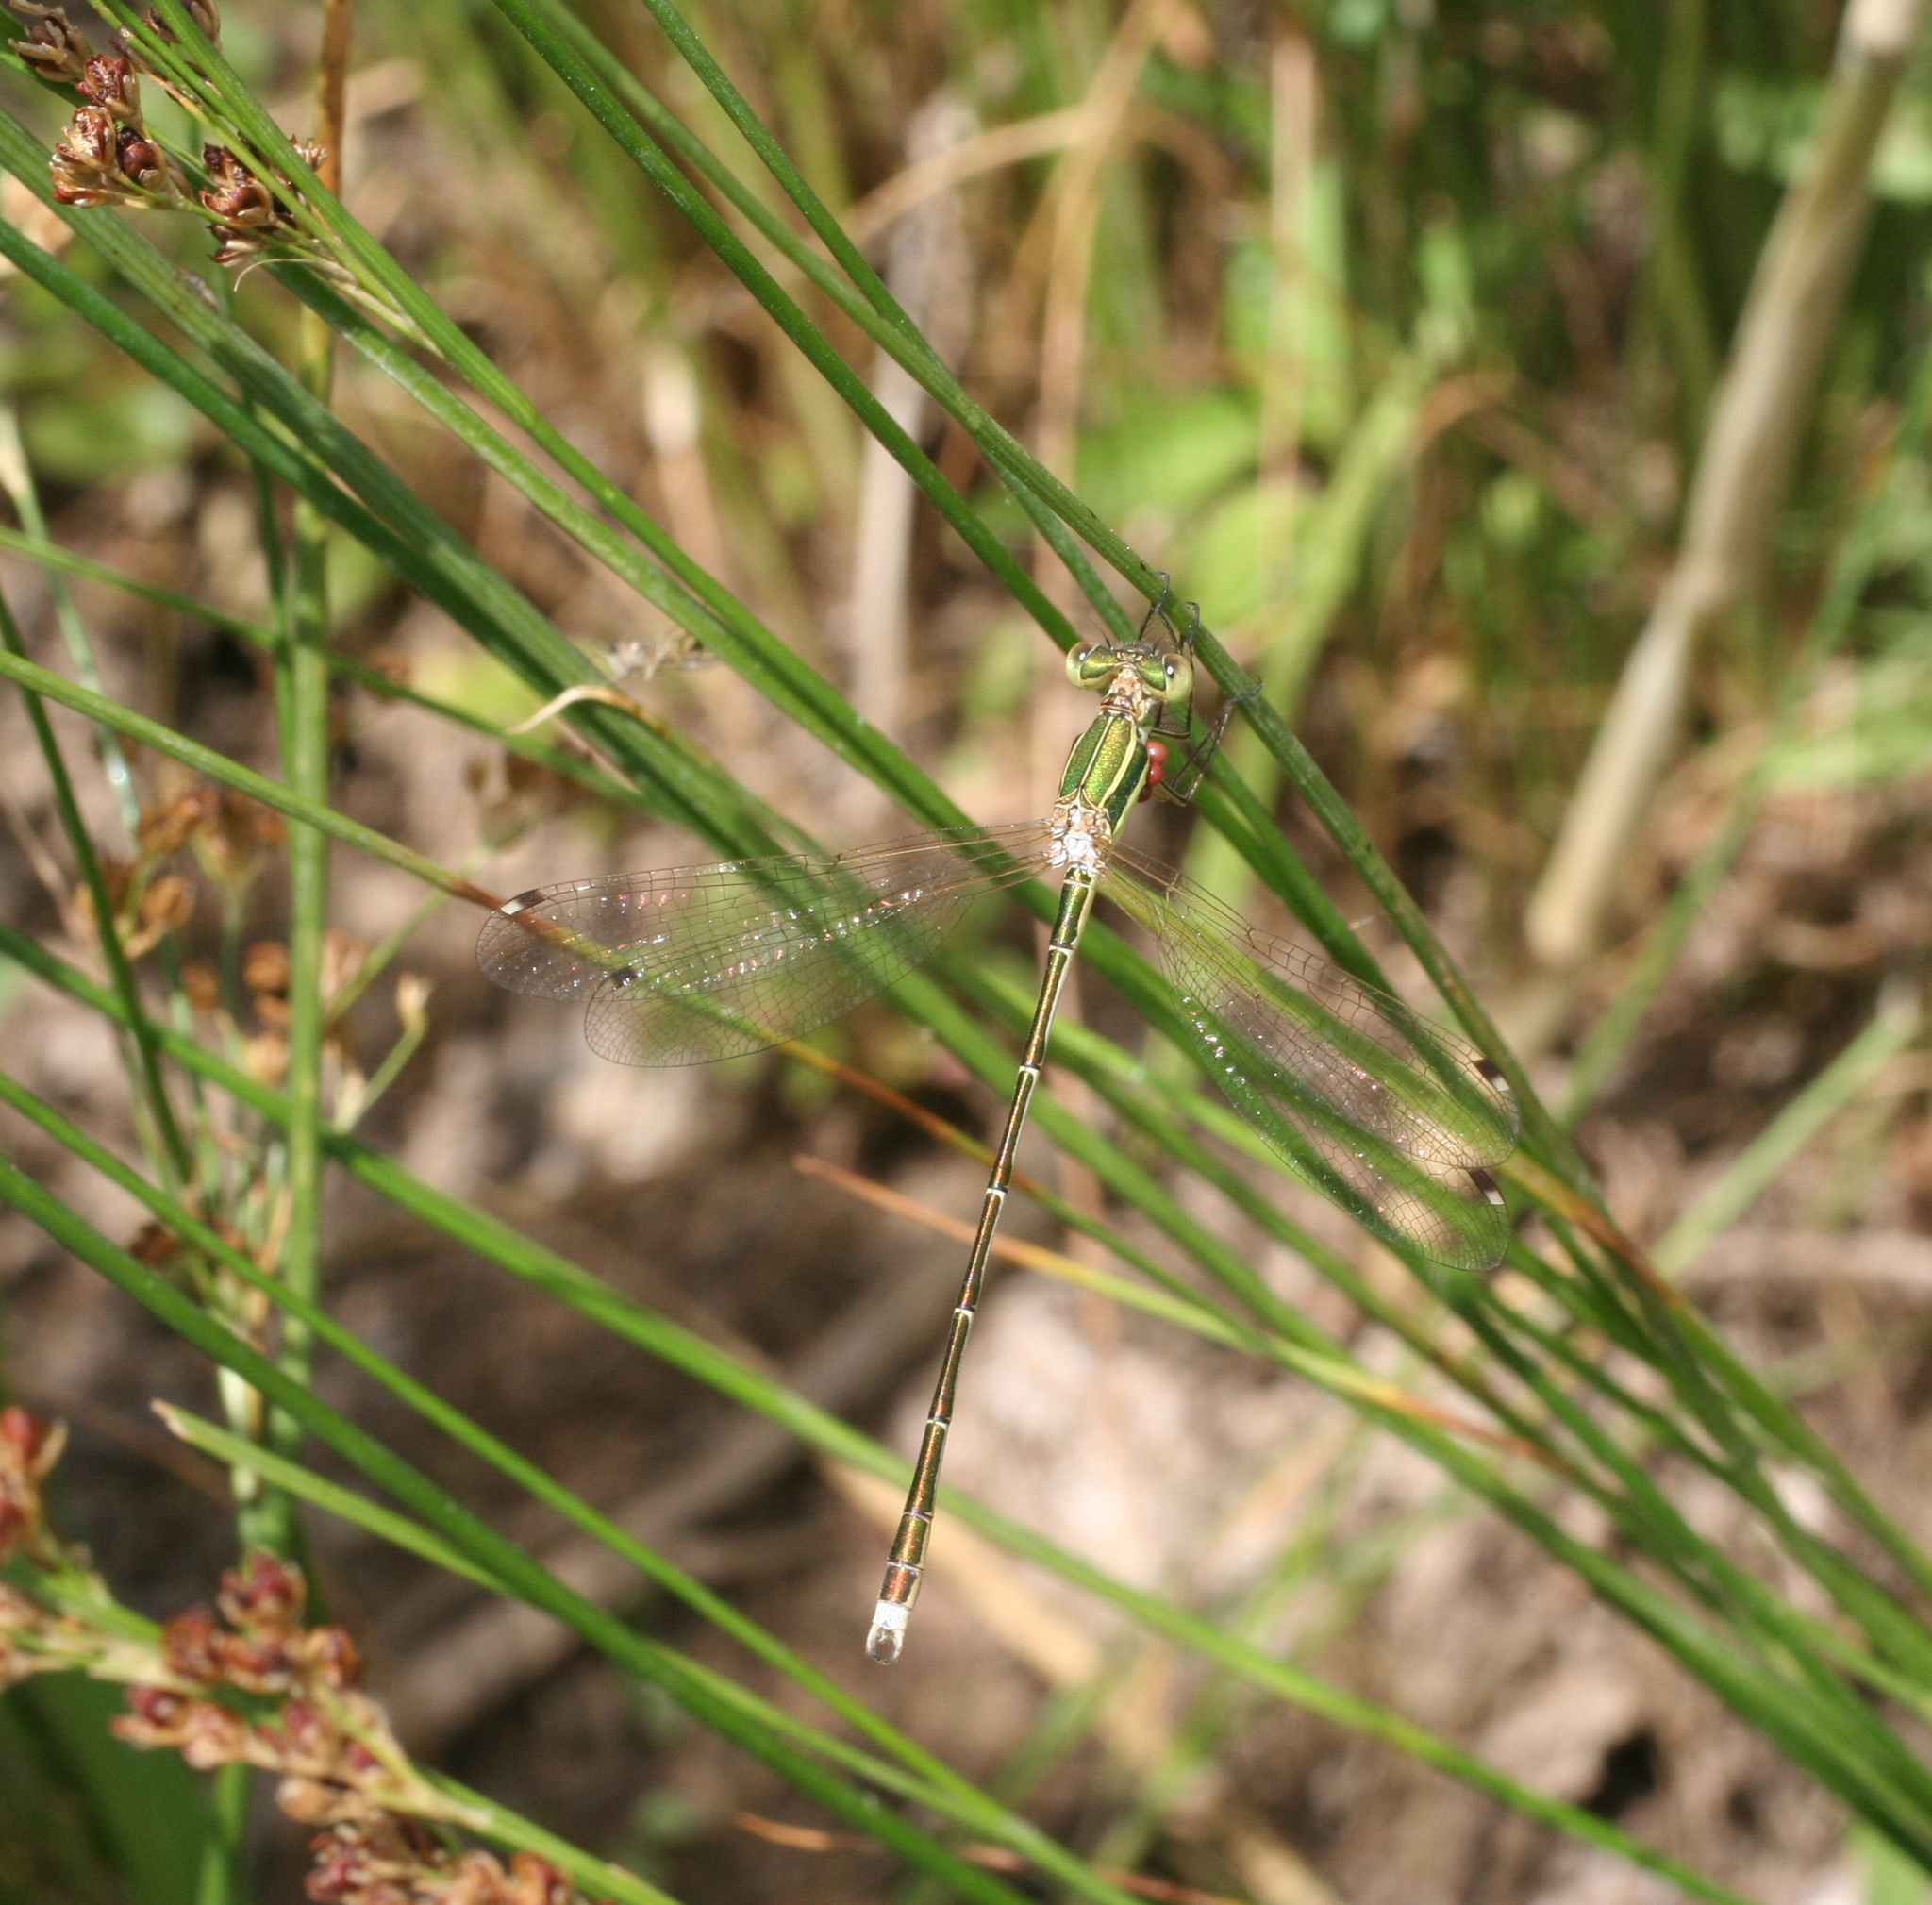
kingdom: Animalia
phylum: Arthropoda
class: Insecta
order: Odonata
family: Lestidae
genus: Lestes
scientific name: Lestes barbarus
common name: Migrant spreadwing
